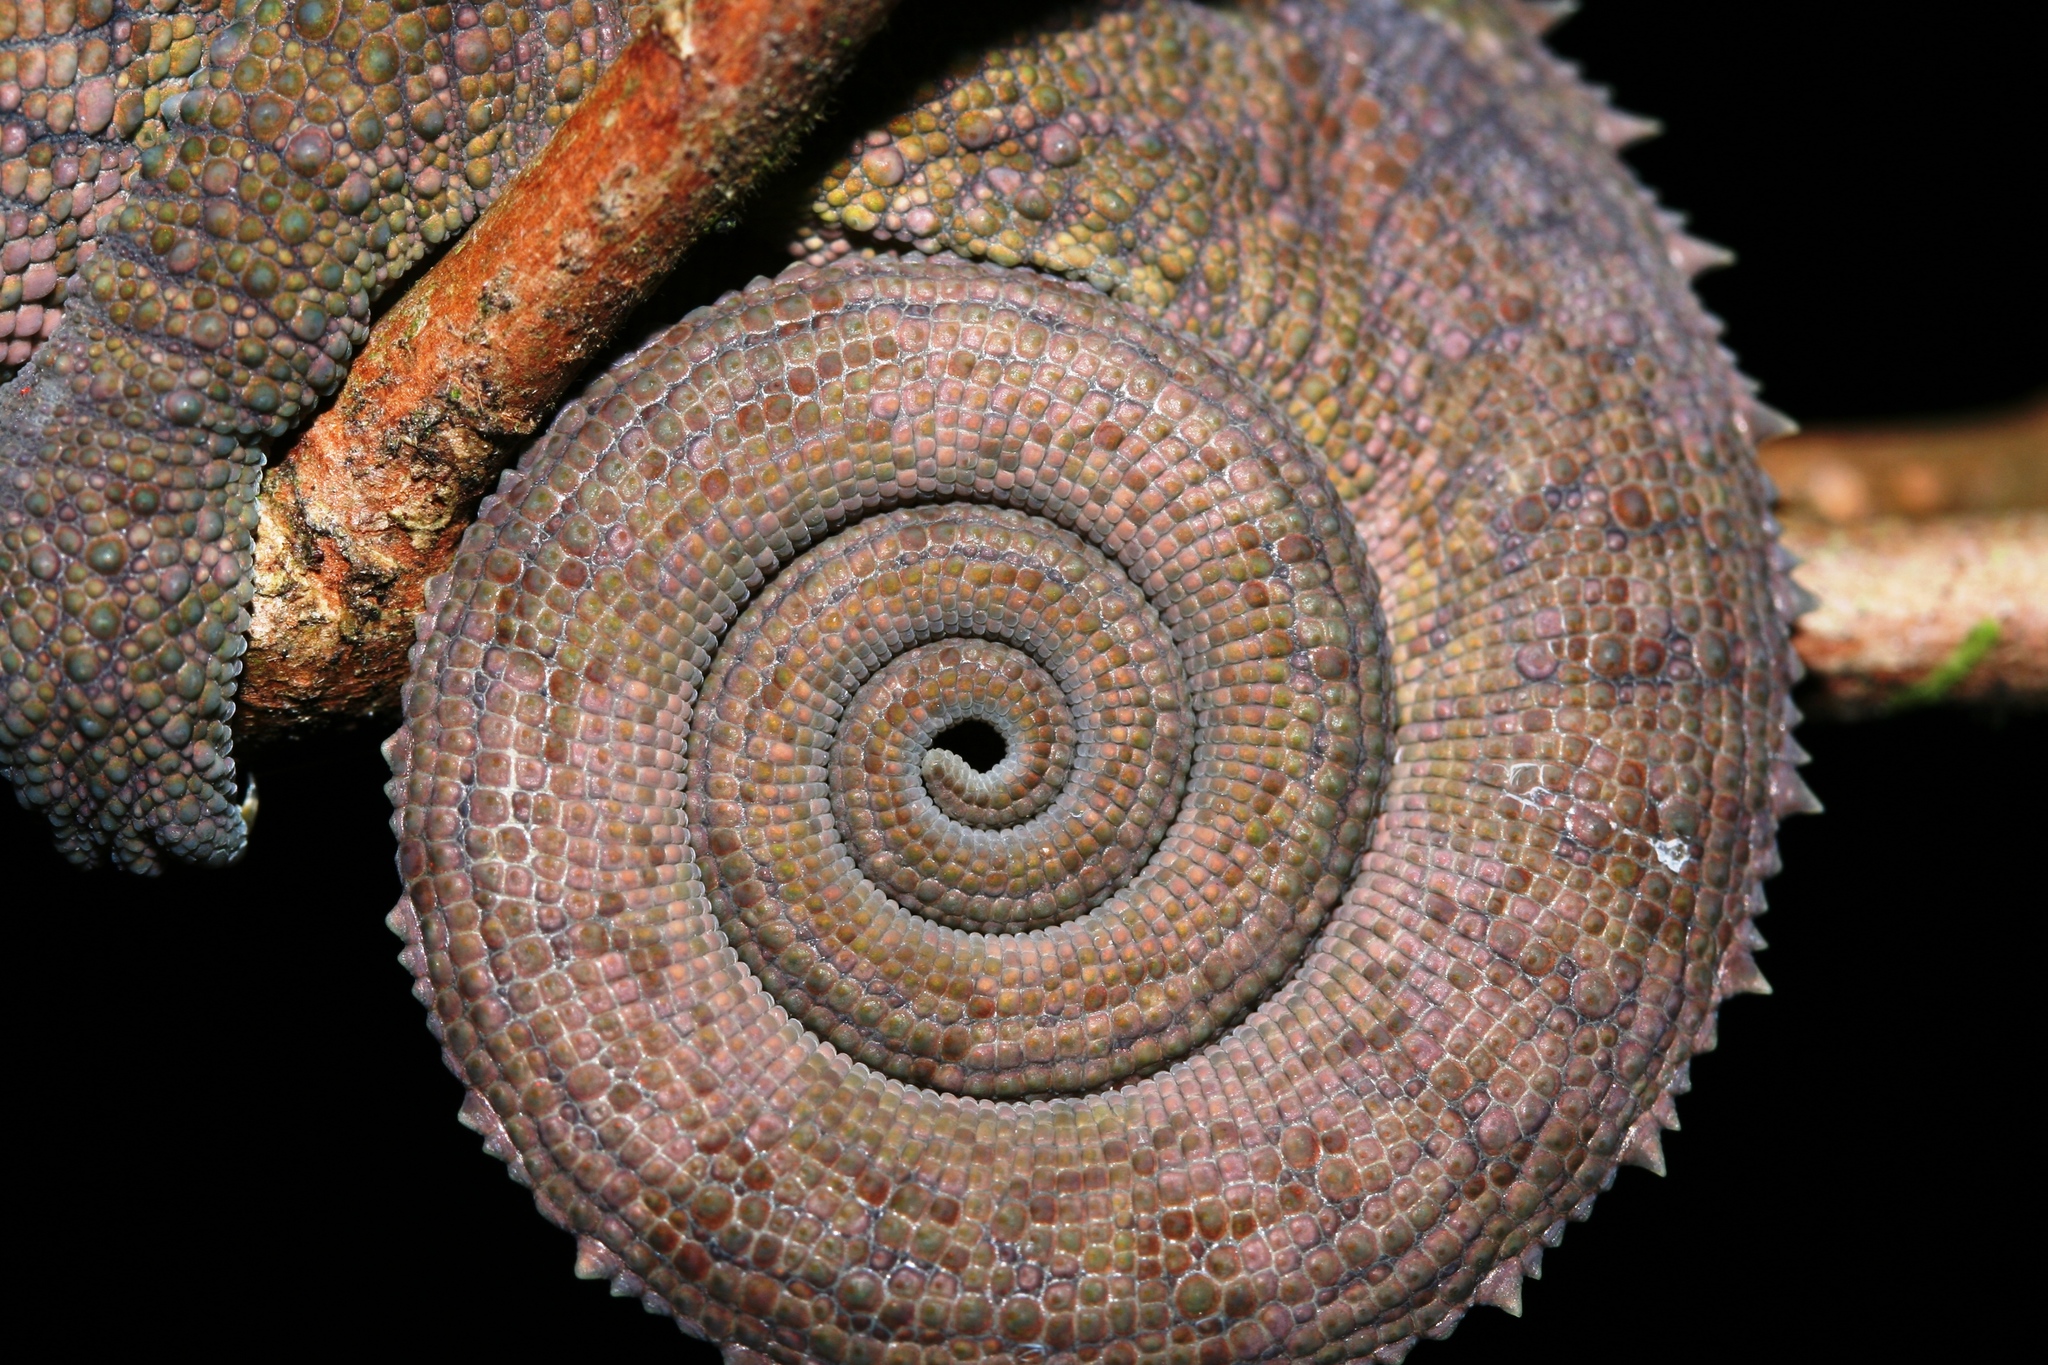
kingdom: Animalia
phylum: Chordata
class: Squamata
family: Chamaeleonidae
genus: Calumma
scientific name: Calumma crypticum
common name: Cryptic chameleon
